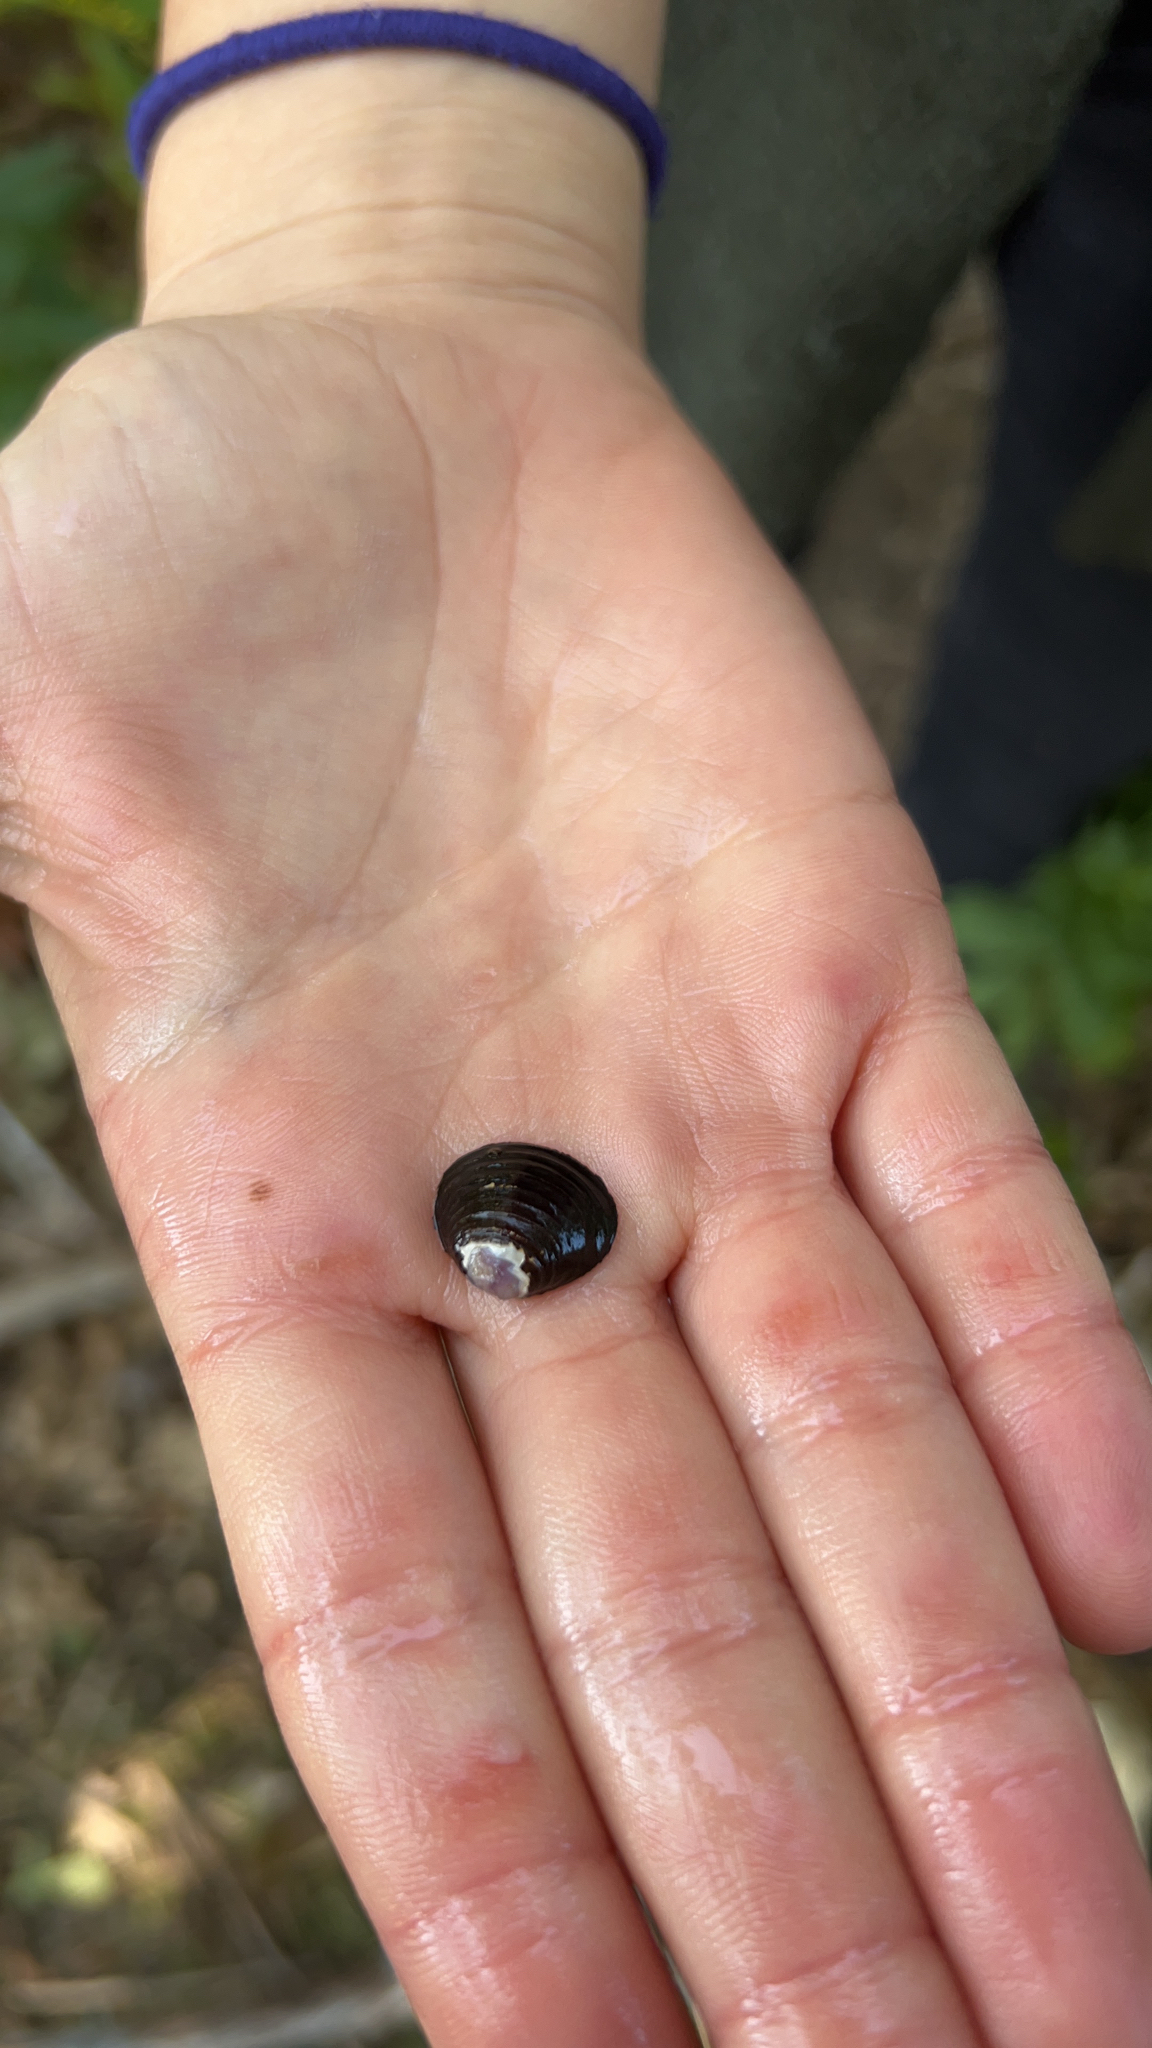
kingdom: Animalia
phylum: Mollusca
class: Bivalvia
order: Venerida
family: Cyrenidae
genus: Corbicula
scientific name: Corbicula fluminea
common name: Asian clam
